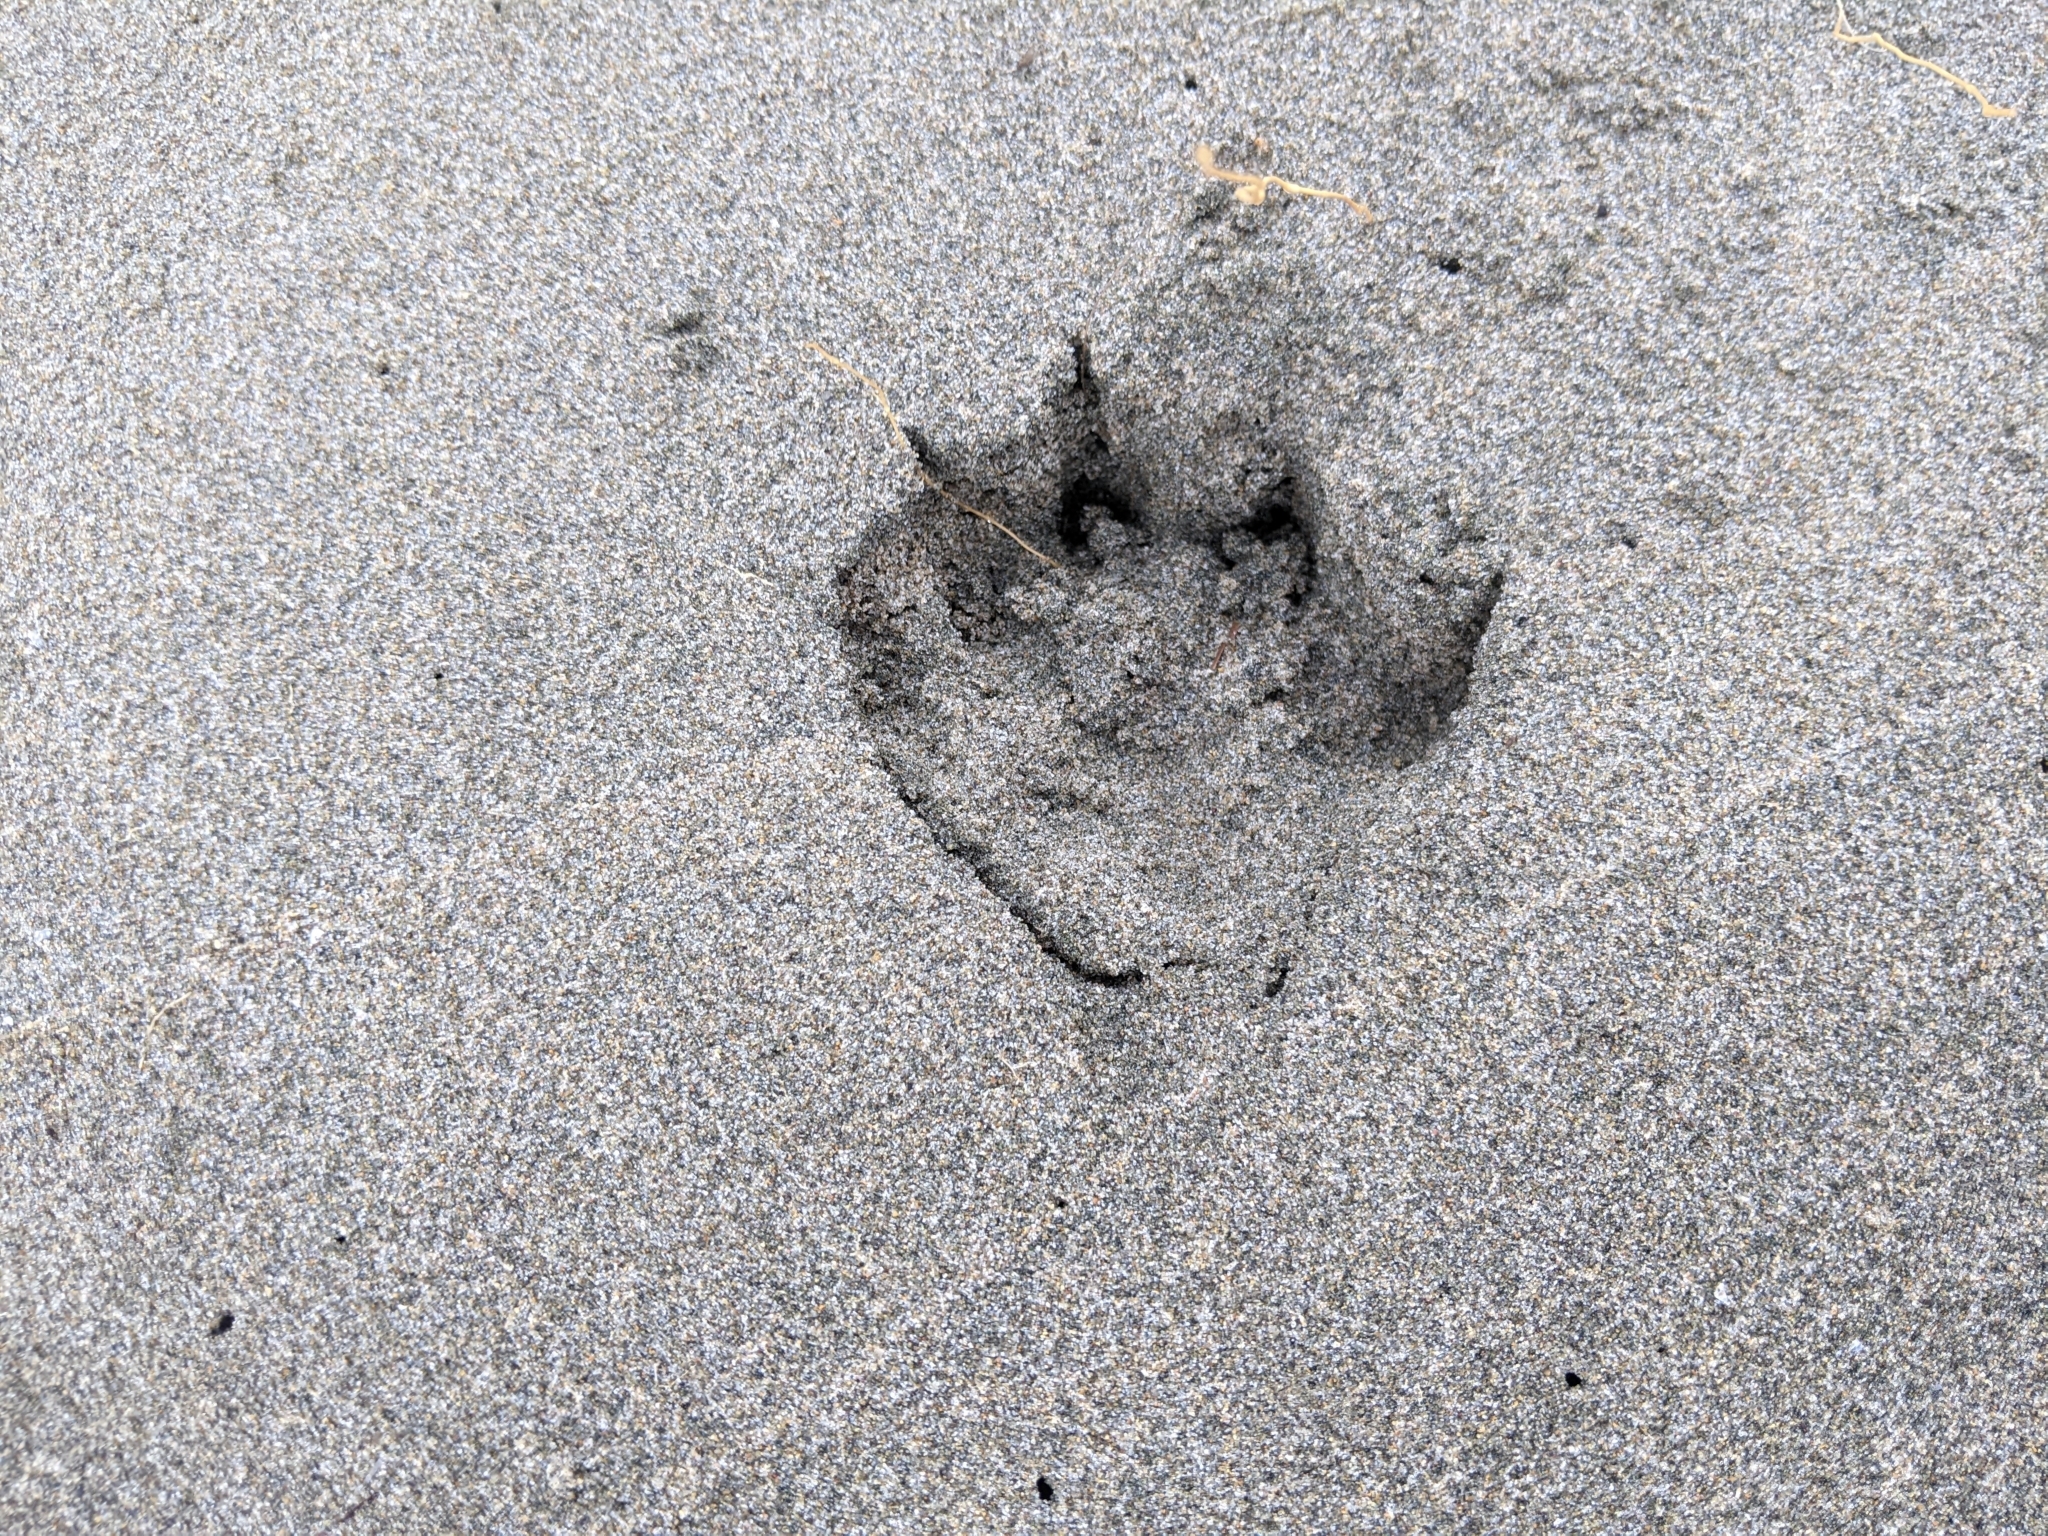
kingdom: Animalia
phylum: Chordata
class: Mammalia
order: Carnivora
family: Mustelidae
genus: Lontra
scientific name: Lontra canadensis
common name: North american river otter
